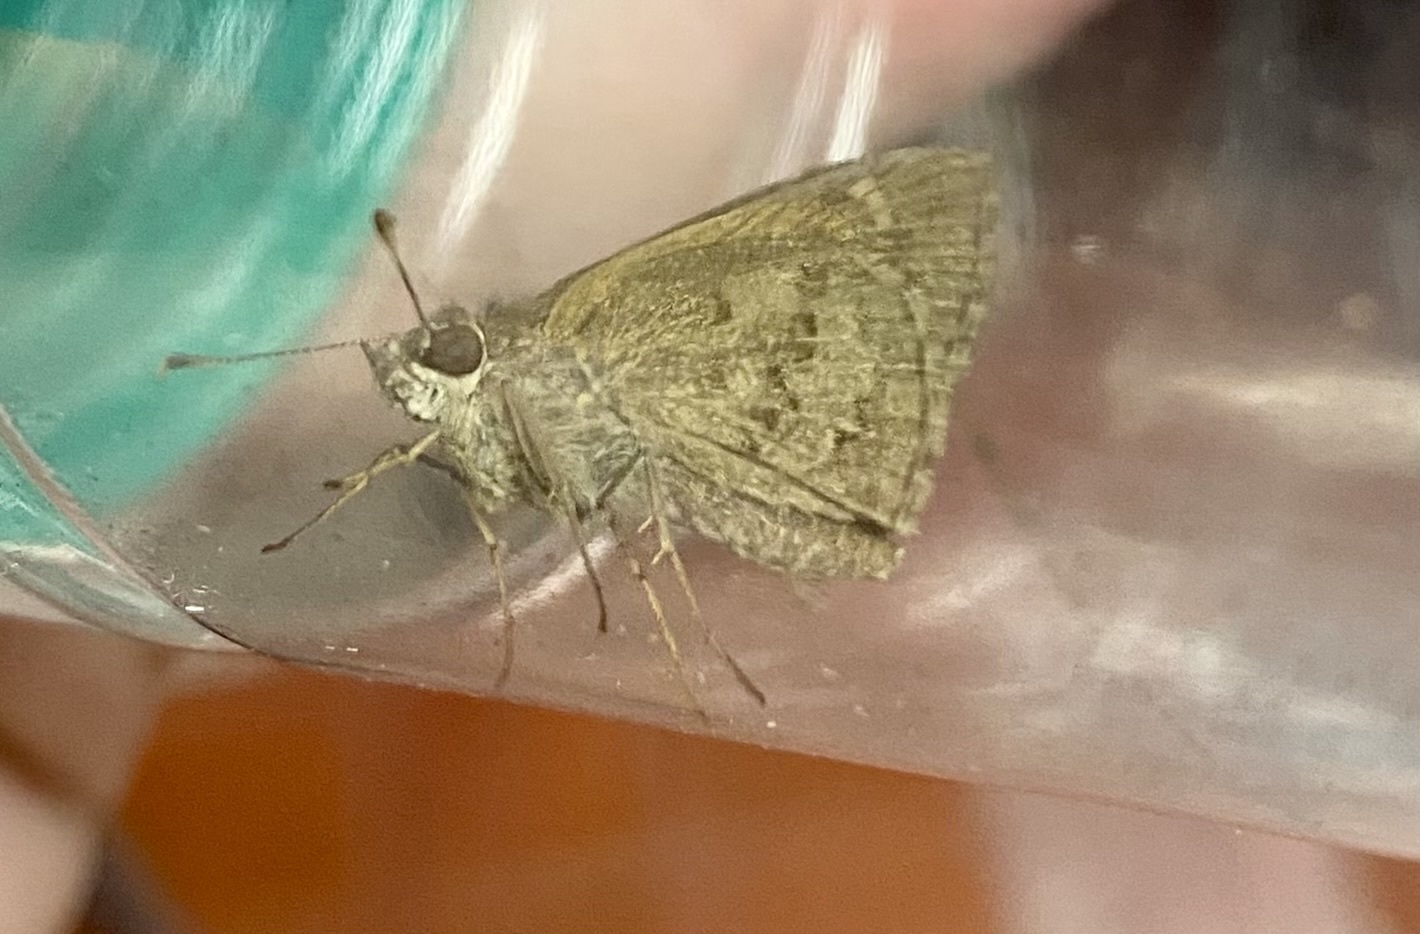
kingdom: Animalia
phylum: Arthropoda
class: Insecta
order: Lepidoptera
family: Hesperiidae
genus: Cymaenes
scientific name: Cymaenes gisca
